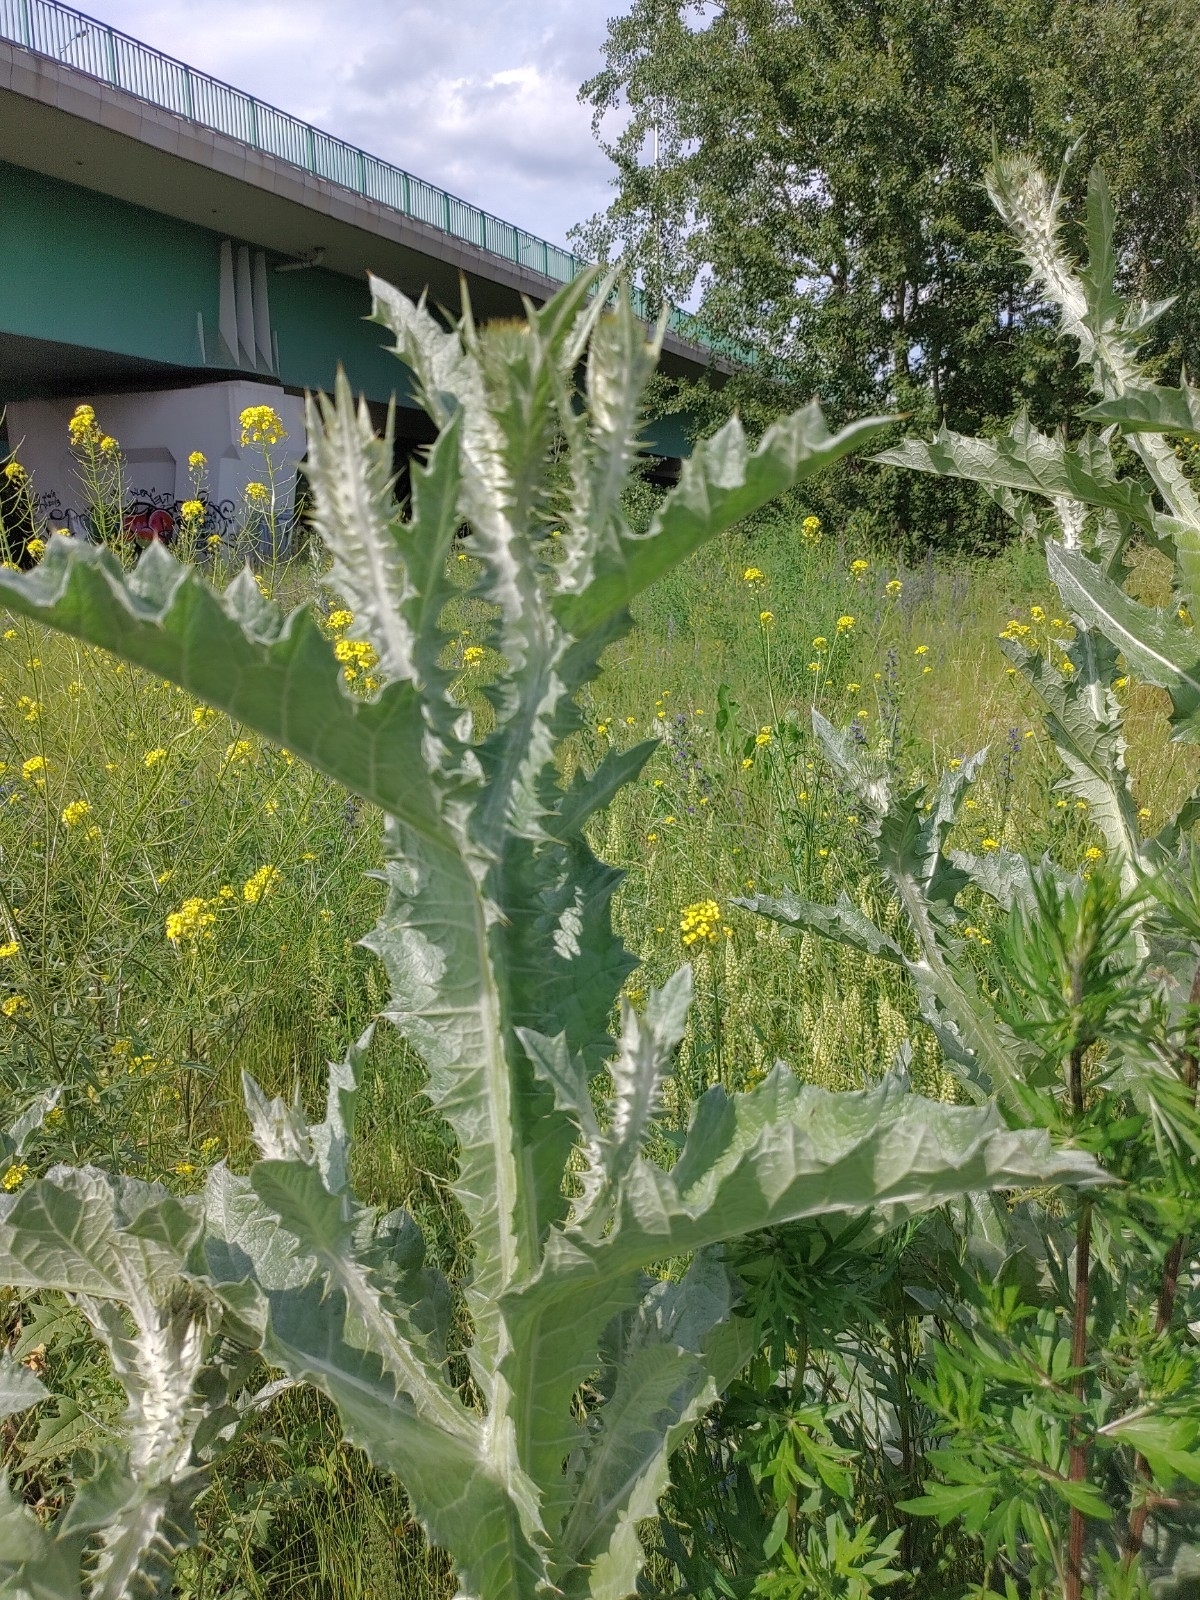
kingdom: Plantae
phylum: Tracheophyta
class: Magnoliopsida
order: Asterales
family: Asteraceae
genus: Onopordum
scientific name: Onopordum acanthium
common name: Scotch thistle
